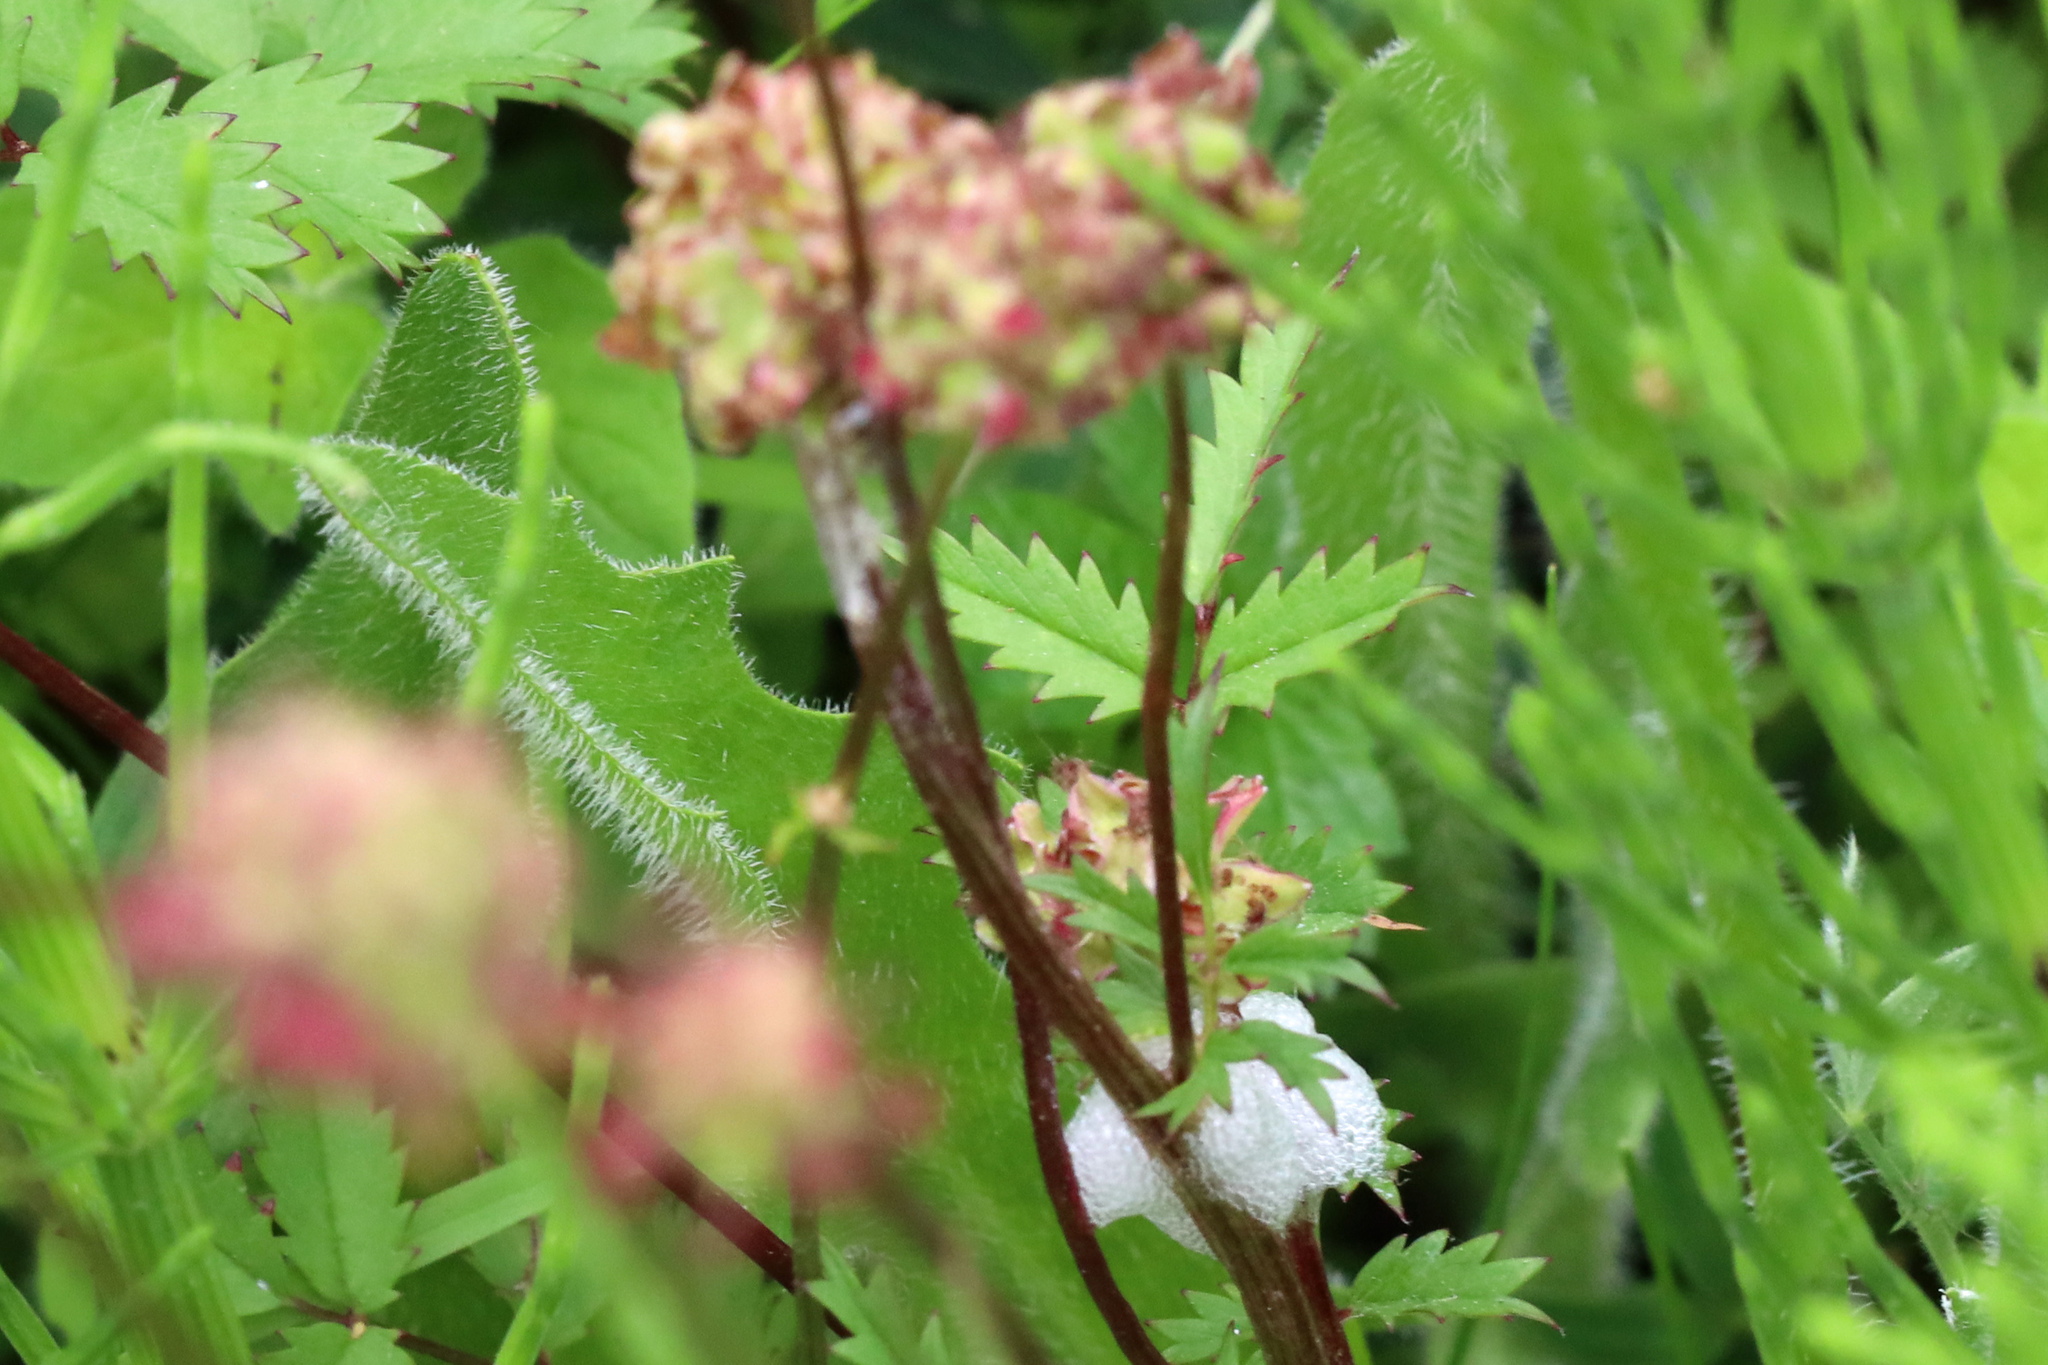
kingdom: Plantae
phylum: Tracheophyta
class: Magnoliopsida
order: Rosales
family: Rosaceae
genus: Poterium
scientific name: Poterium sanguisorba
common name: Salad burnet
